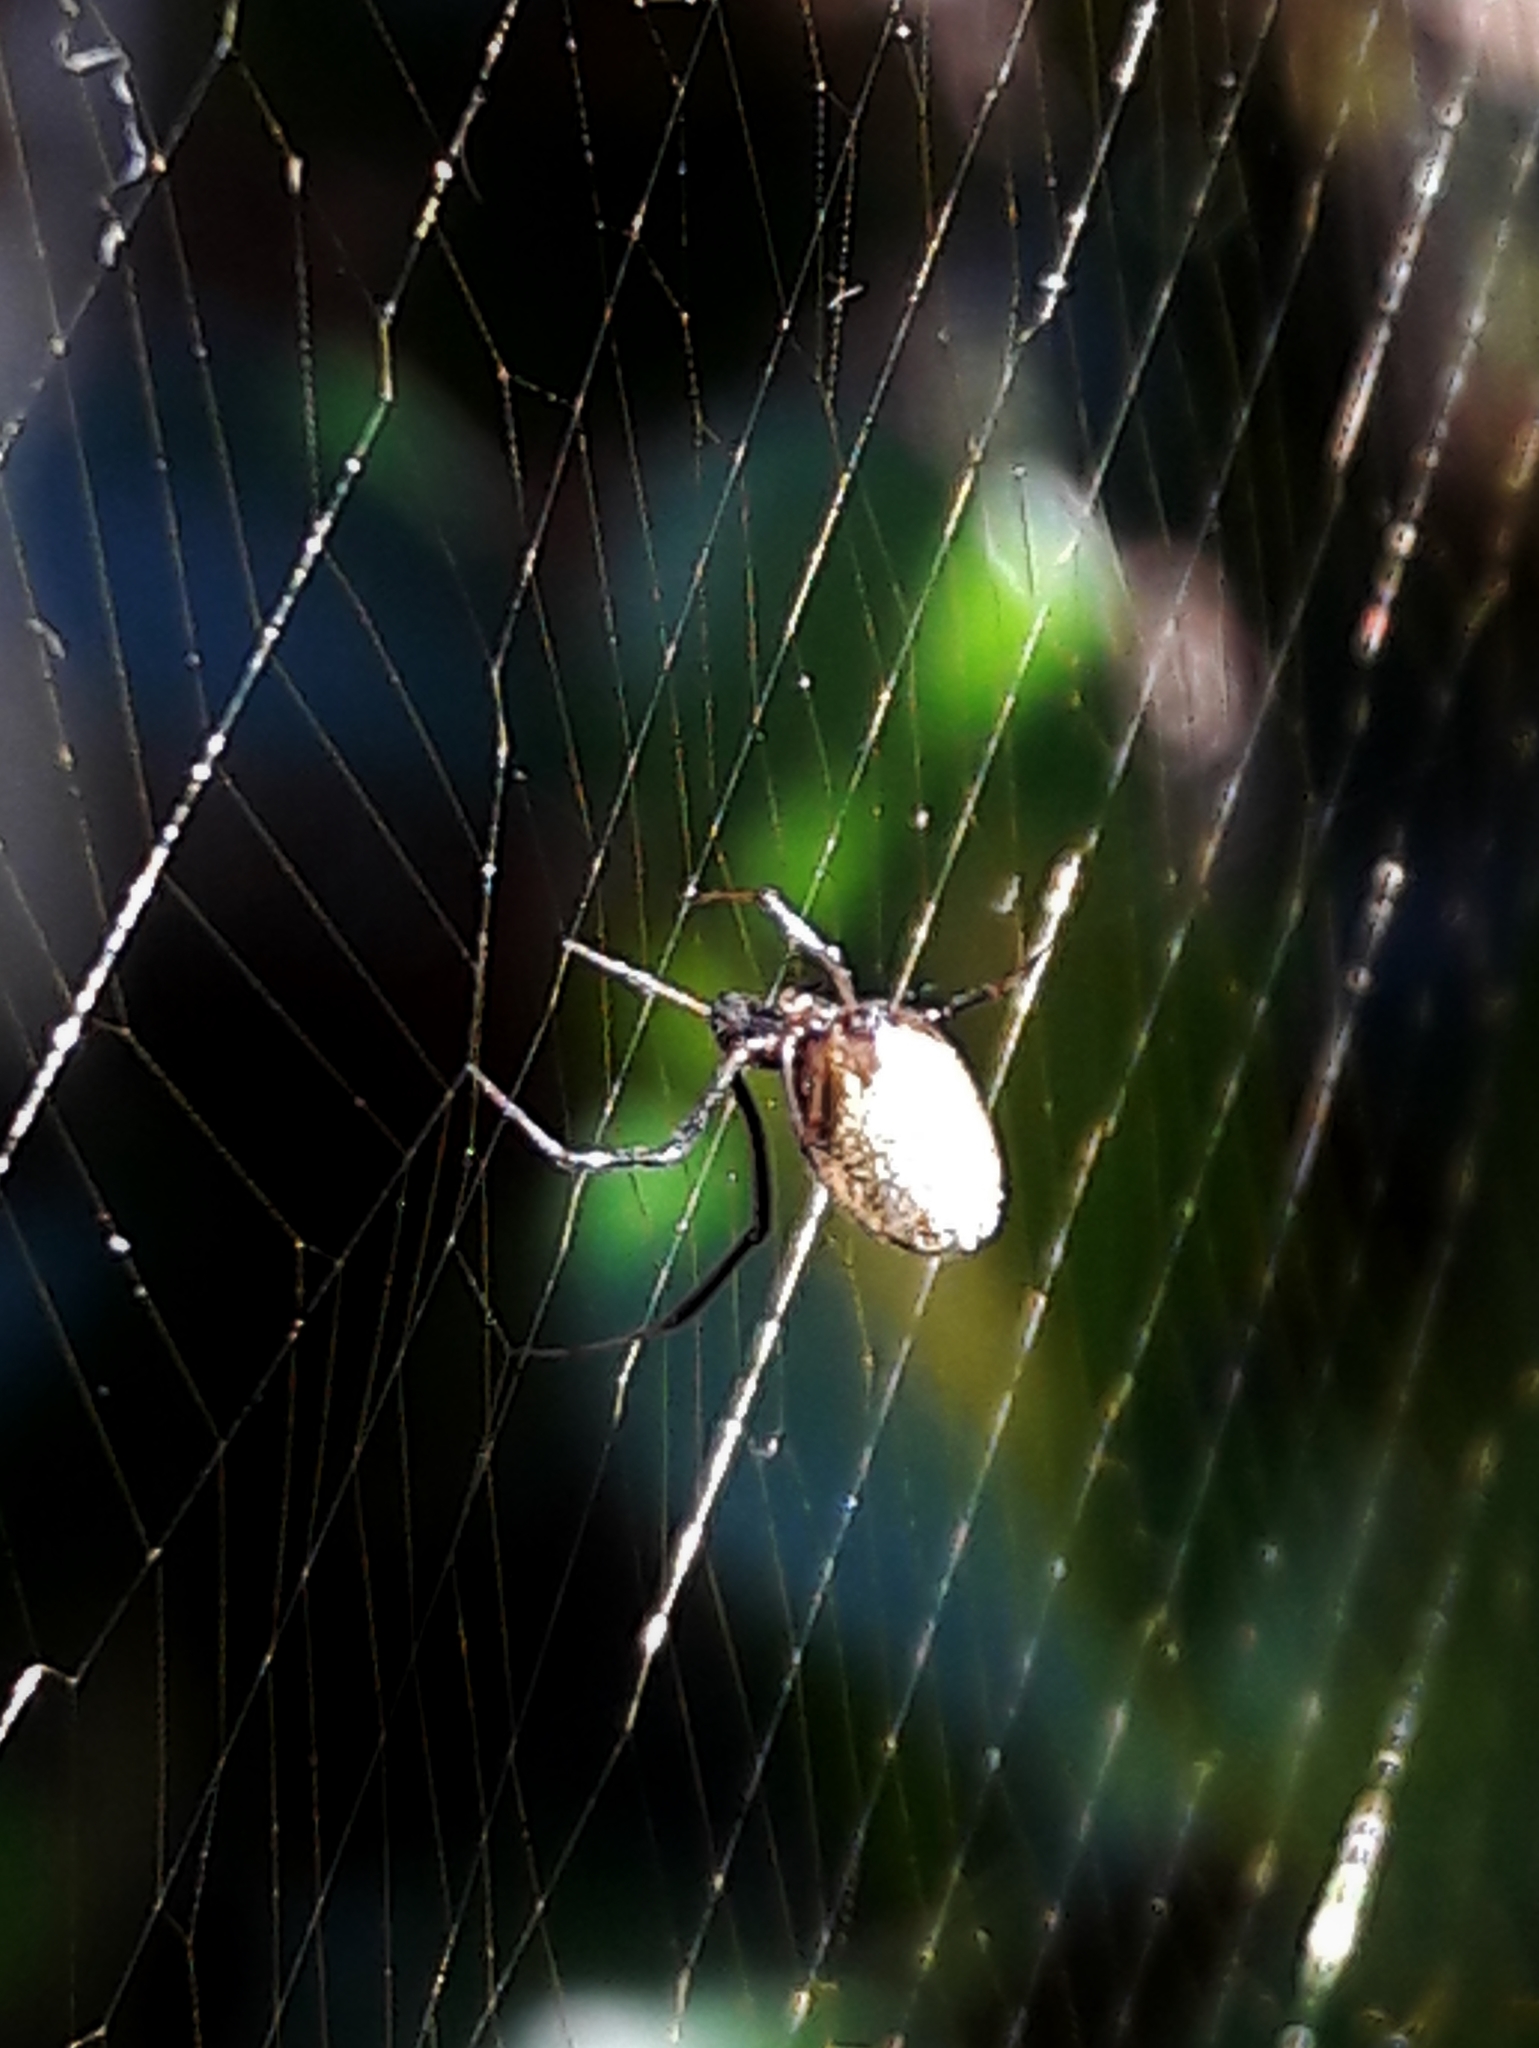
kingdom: Animalia
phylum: Arthropoda
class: Arachnida
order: Araneae
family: Theridiidae
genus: Argyrodes
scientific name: Argyrodes elevatus
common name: Cobweb spiders
